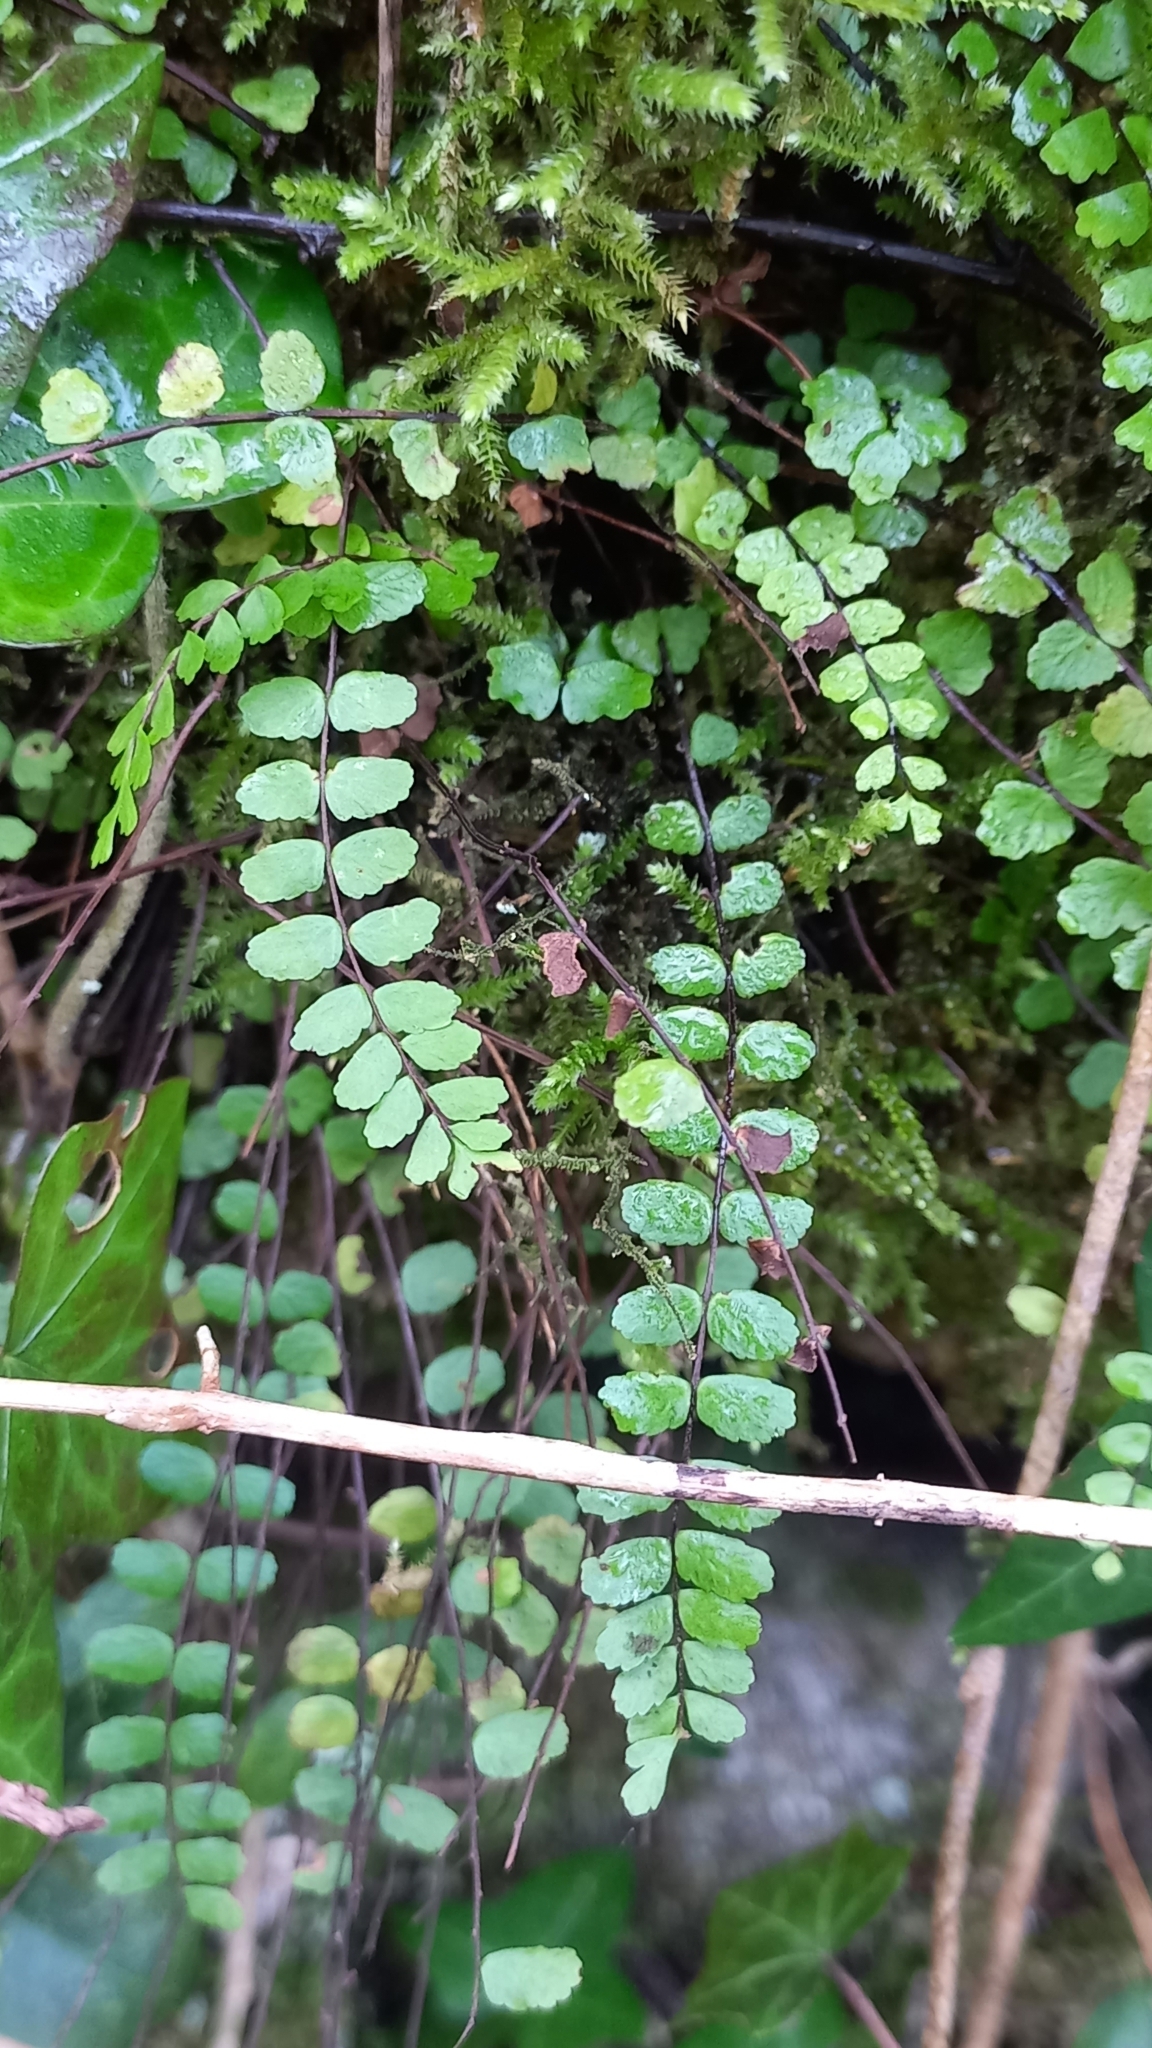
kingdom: Plantae
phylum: Tracheophyta
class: Polypodiopsida
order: Polypodiales
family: Aspleniaceae
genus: Asplenium
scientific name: Asplenium trichomanes
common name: Maidenhair spleenwort
